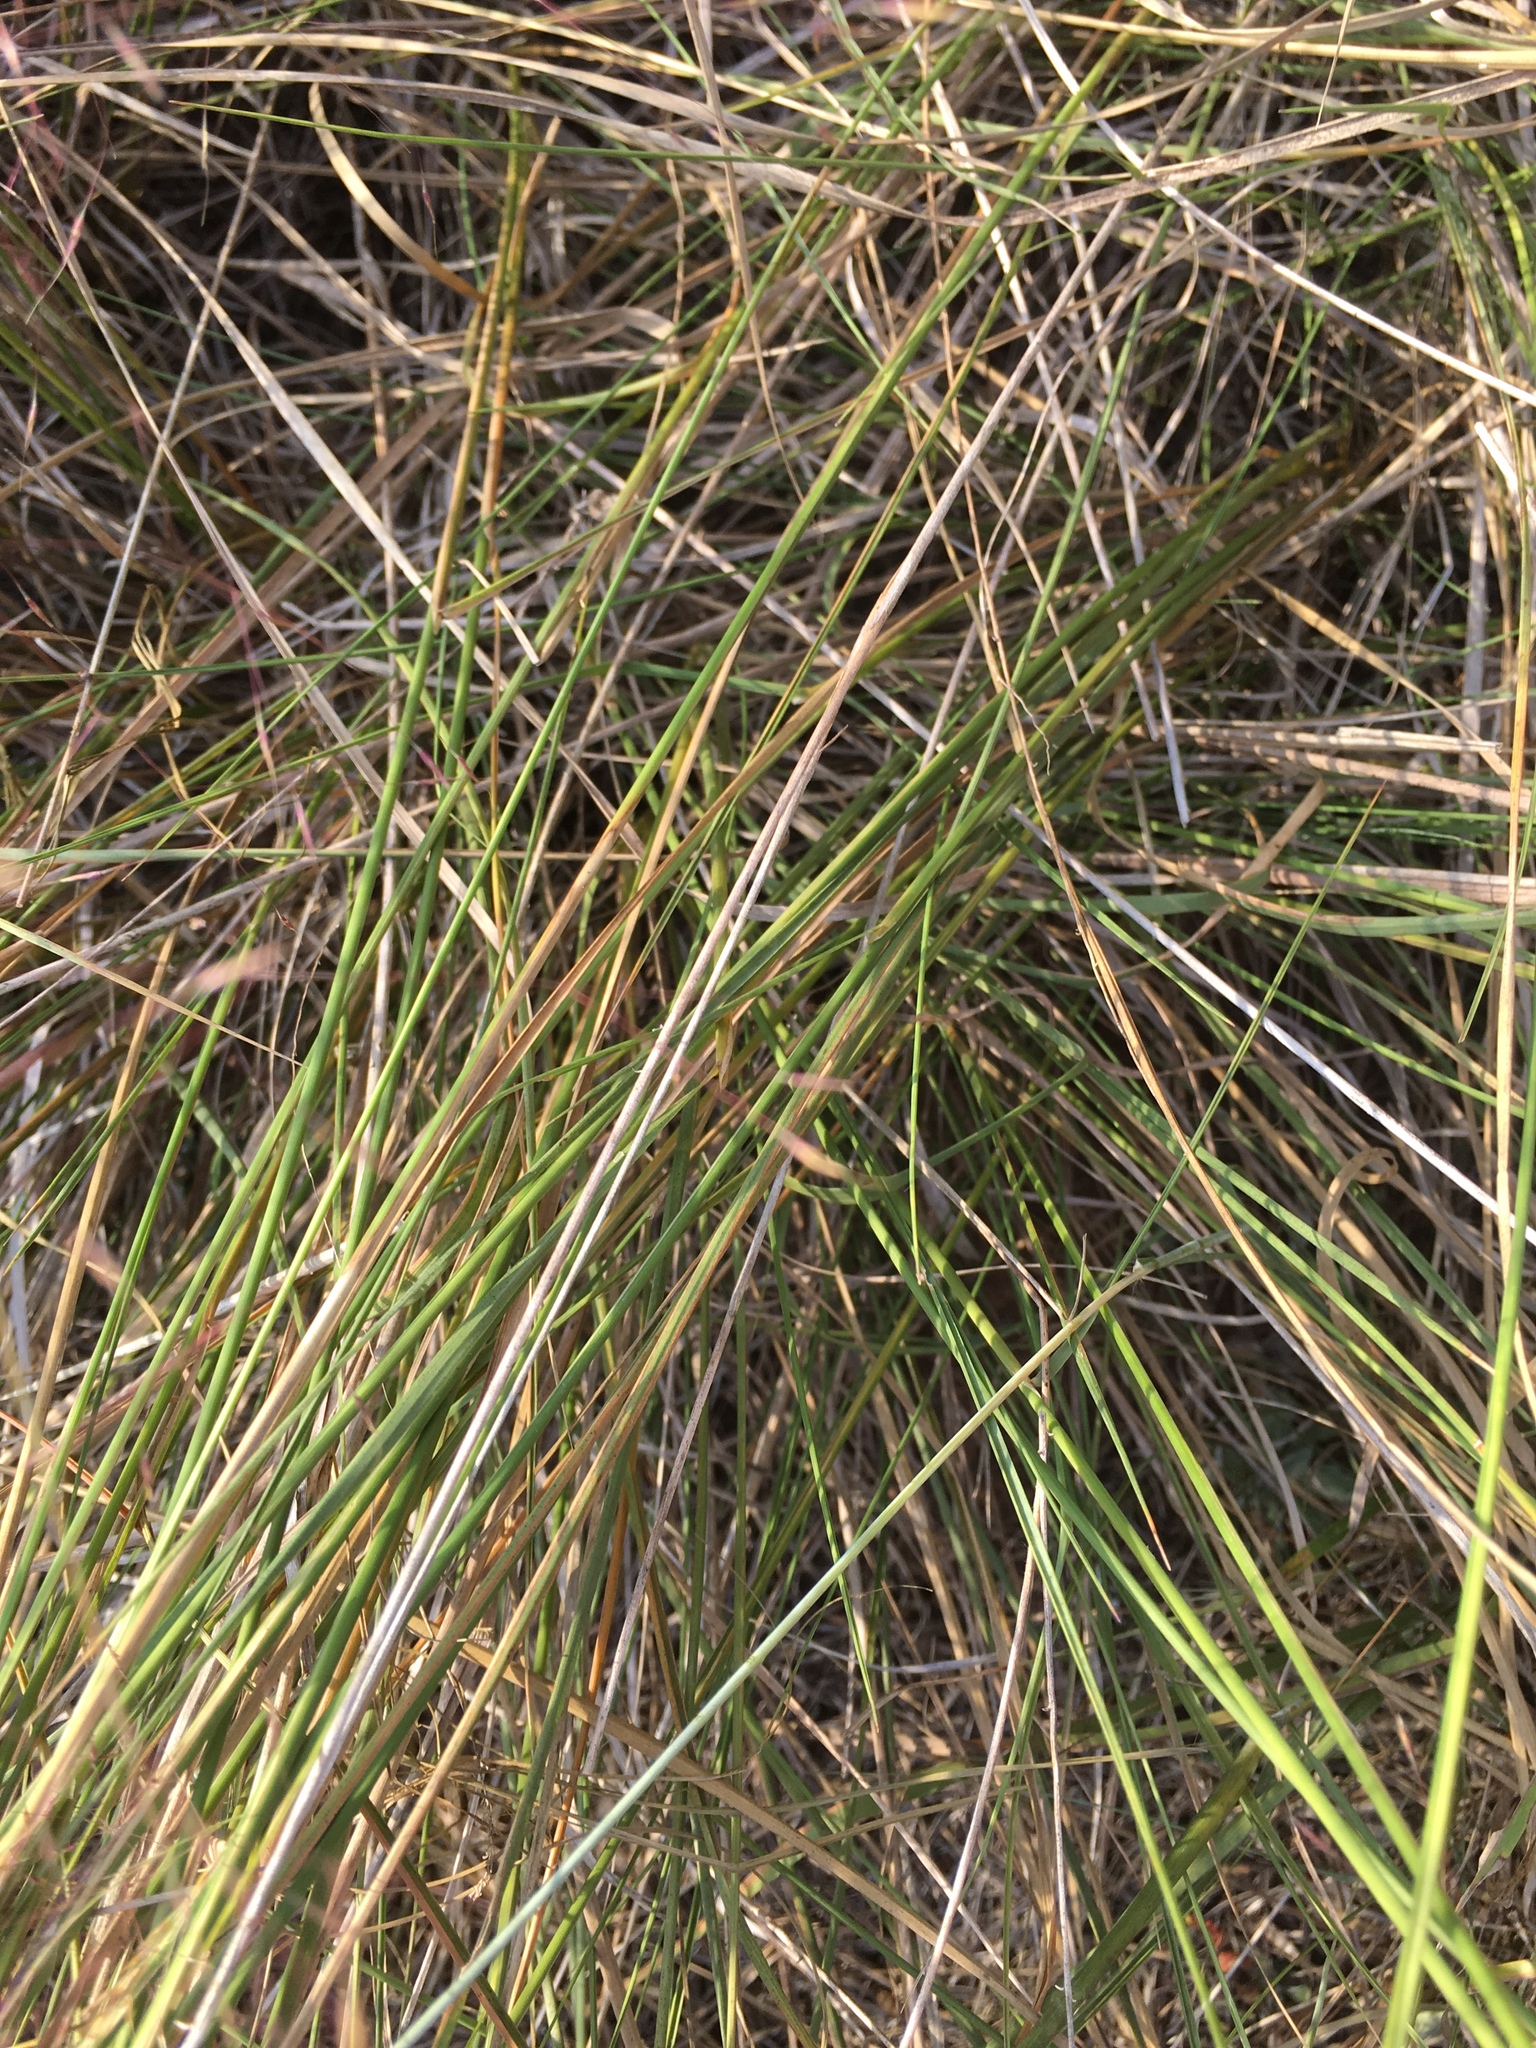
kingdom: Plantae
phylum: Tracheophyta
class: Liliopsida
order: Poales
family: Poaceae
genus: Muhlenbergia
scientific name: Muhlenbergia capillaris
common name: Purple grass
